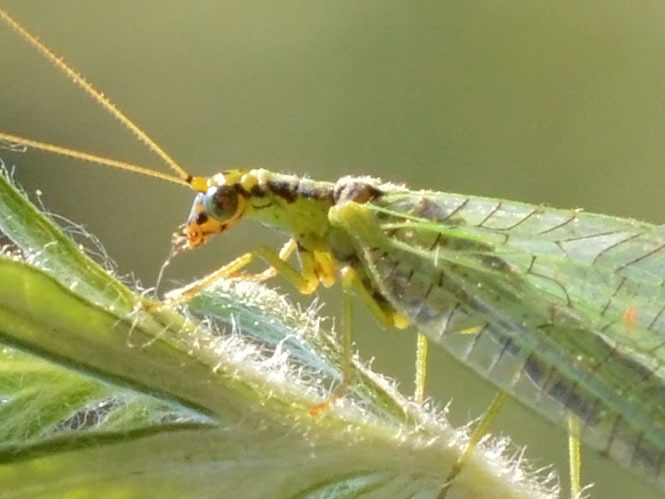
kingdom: Animalia
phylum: Arthropoda
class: Insecta
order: Neuroptera
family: Chrysopidae
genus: Chrysopa
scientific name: Chrysopa walkeri
